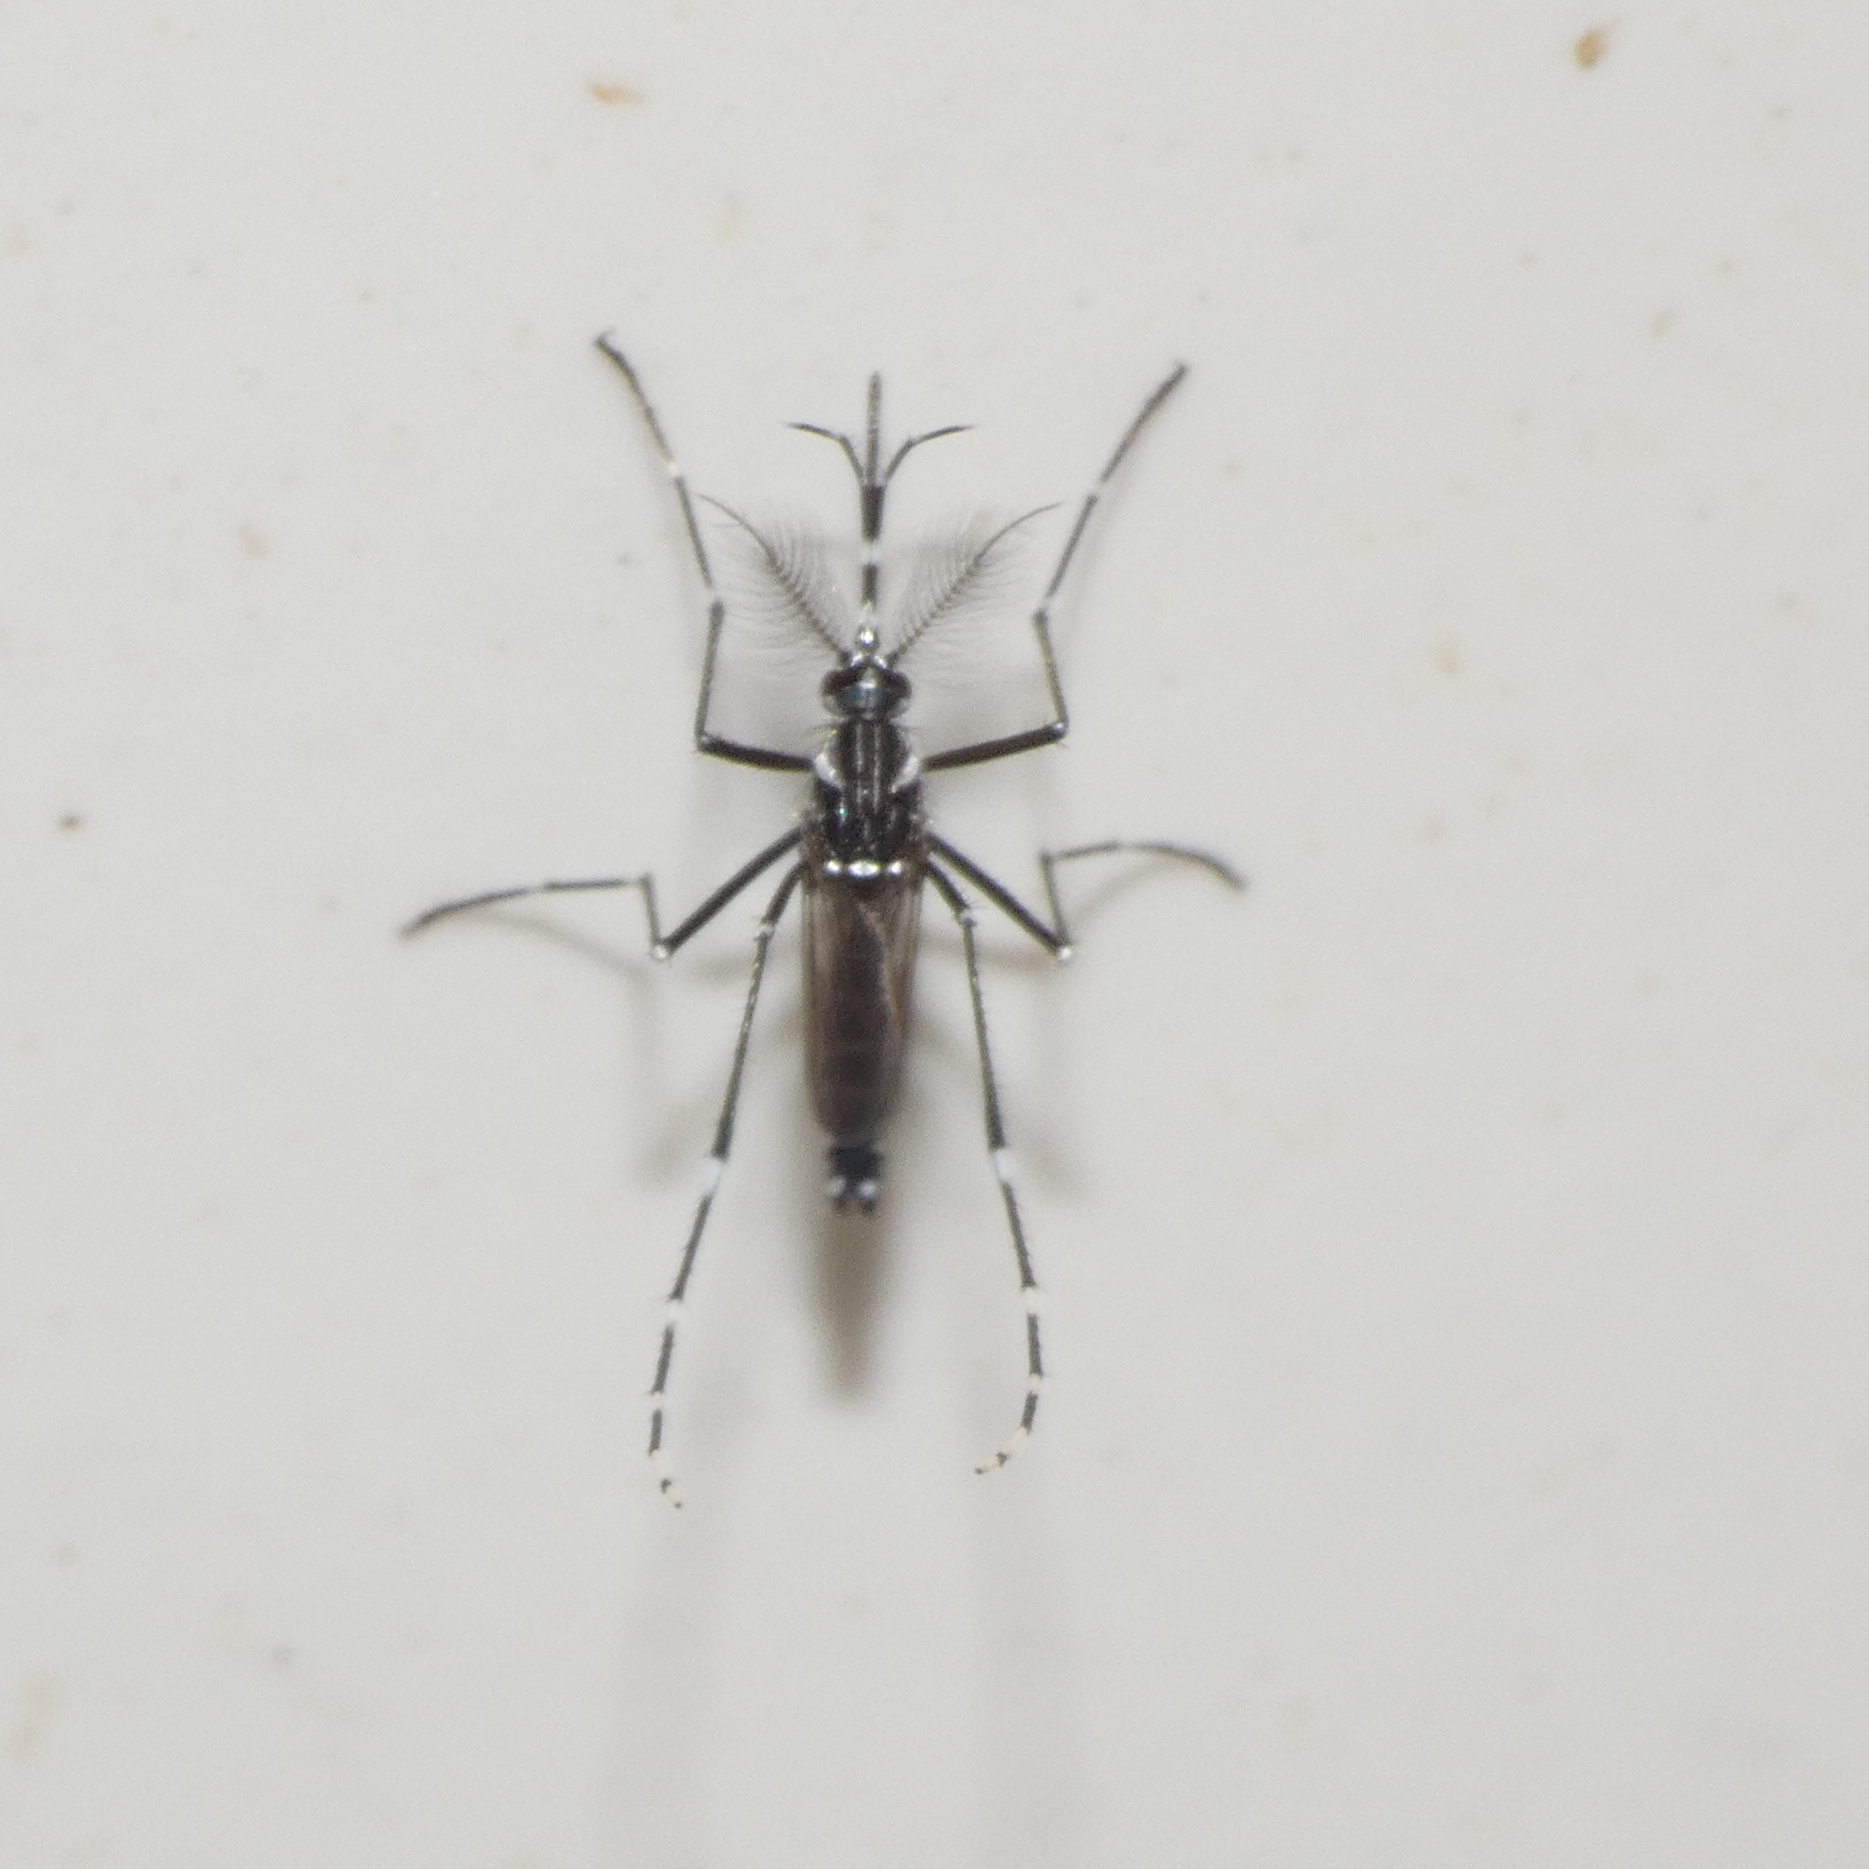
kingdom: Animalia
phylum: Arthropoda
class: Insecta
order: Diptera
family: Culicidae
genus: Aedes
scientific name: Aedes aegypti
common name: Yellow fever mosquito
